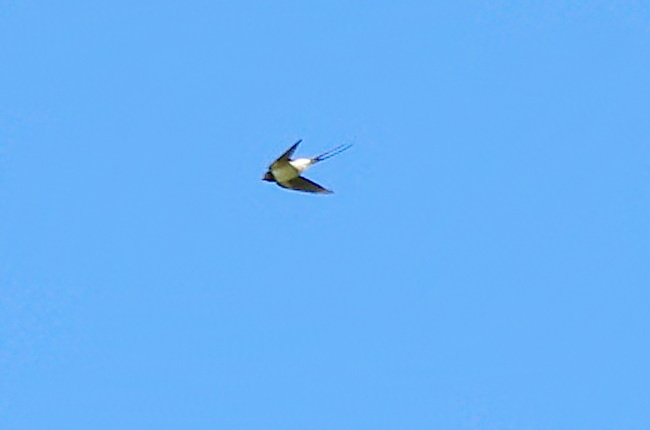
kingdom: Animalia
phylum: Chordata
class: Aves
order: Passeriformes
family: Hirundinidae
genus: Hirundo
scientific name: Hirundo rustica
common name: Barn swallow
